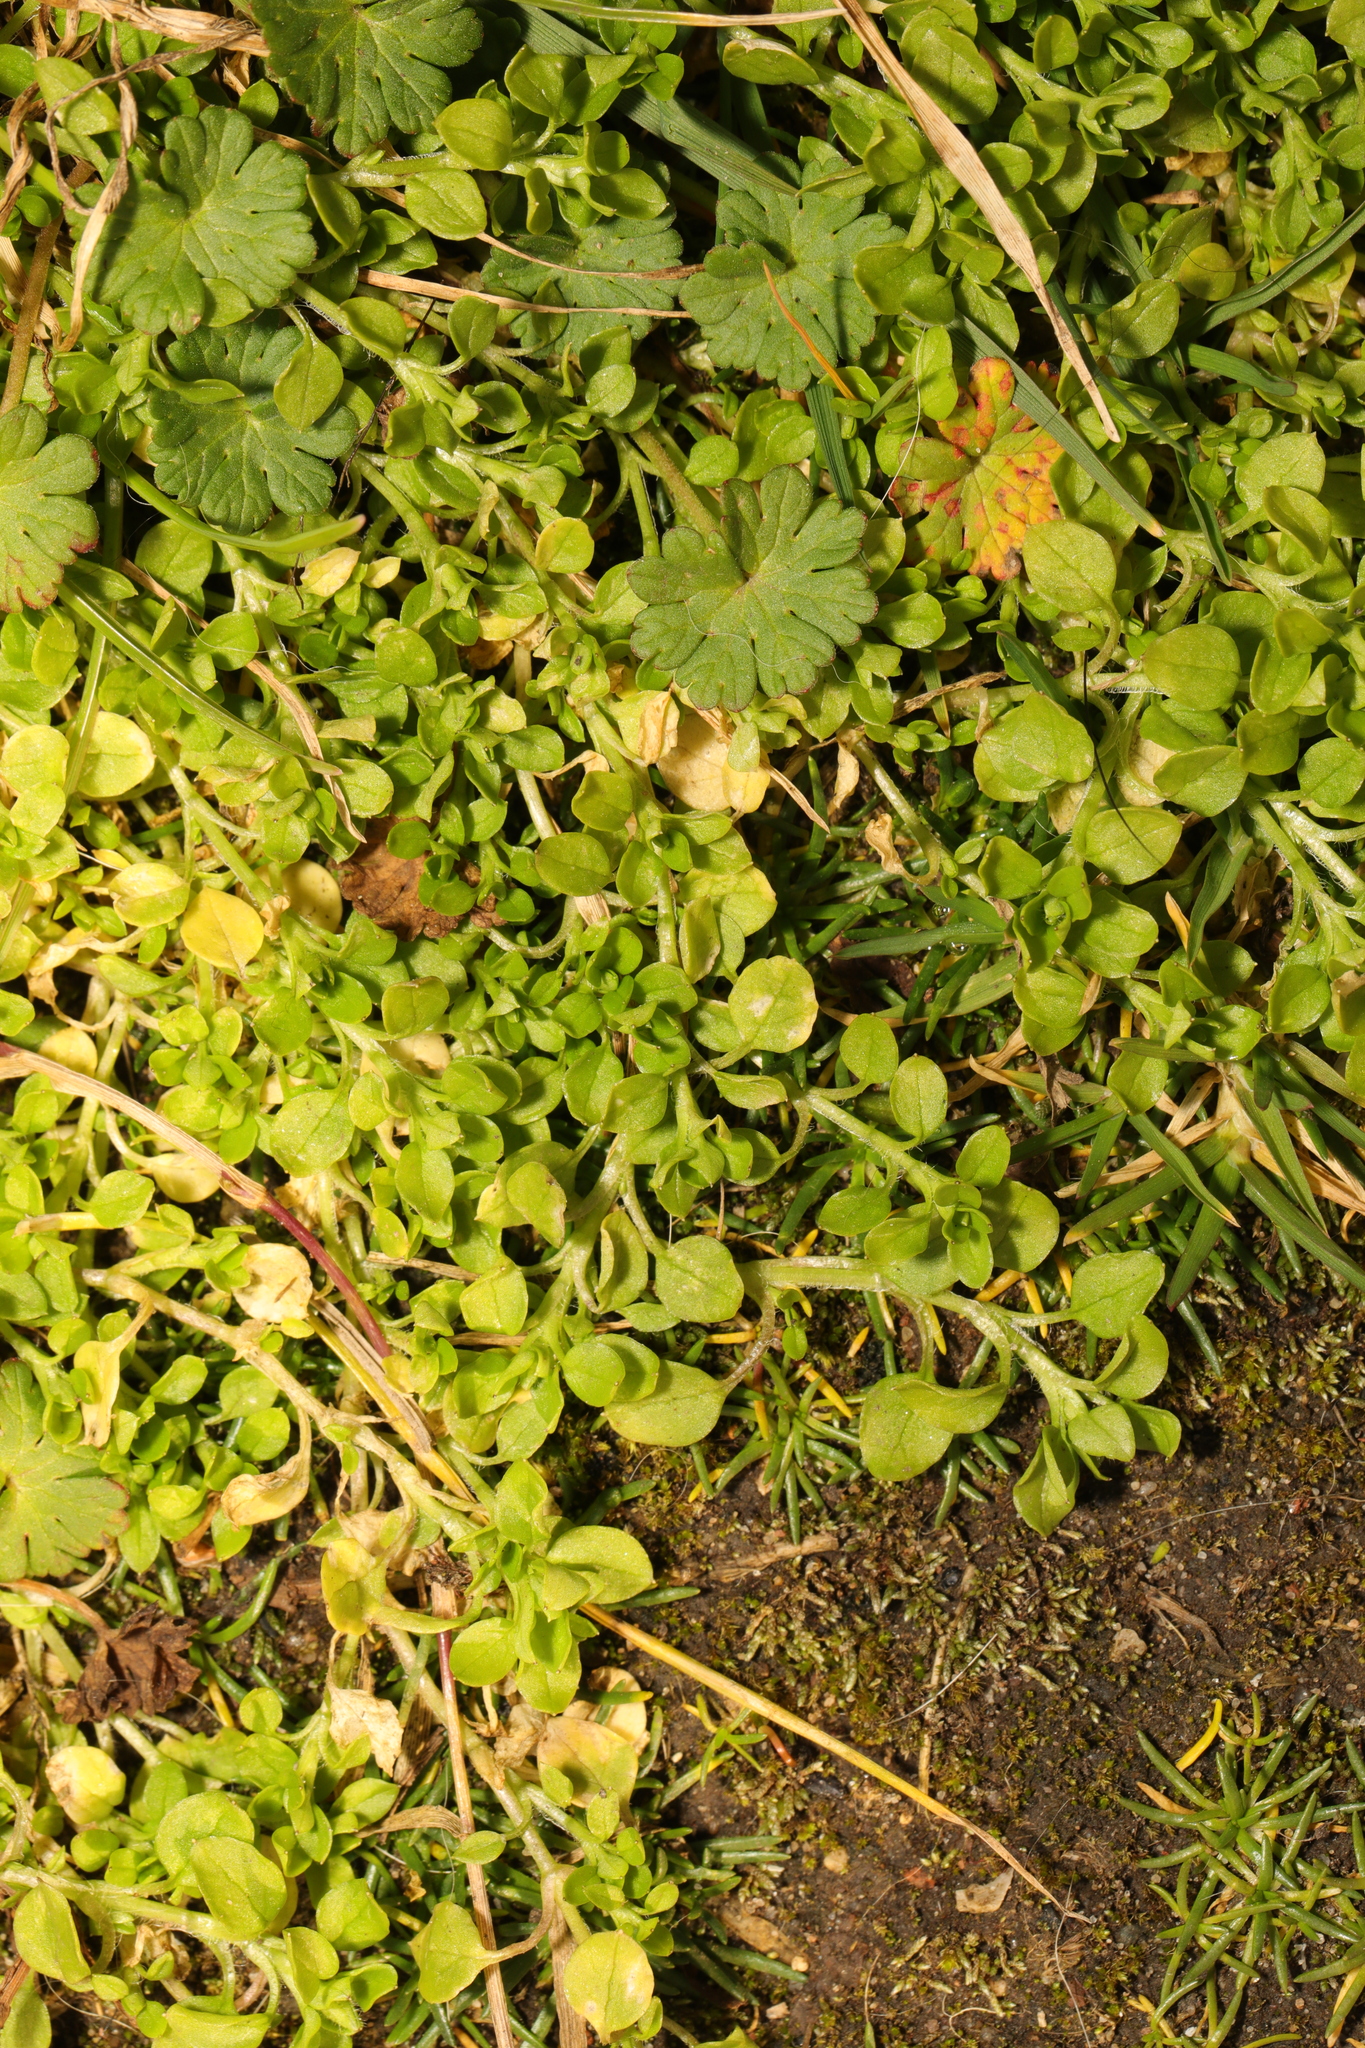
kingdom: Plantae
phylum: Tracheophyta
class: Magnoliopsida
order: Caryophyllales
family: Caryophyllaceae
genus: Stellaria
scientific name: Stellaria apetala
